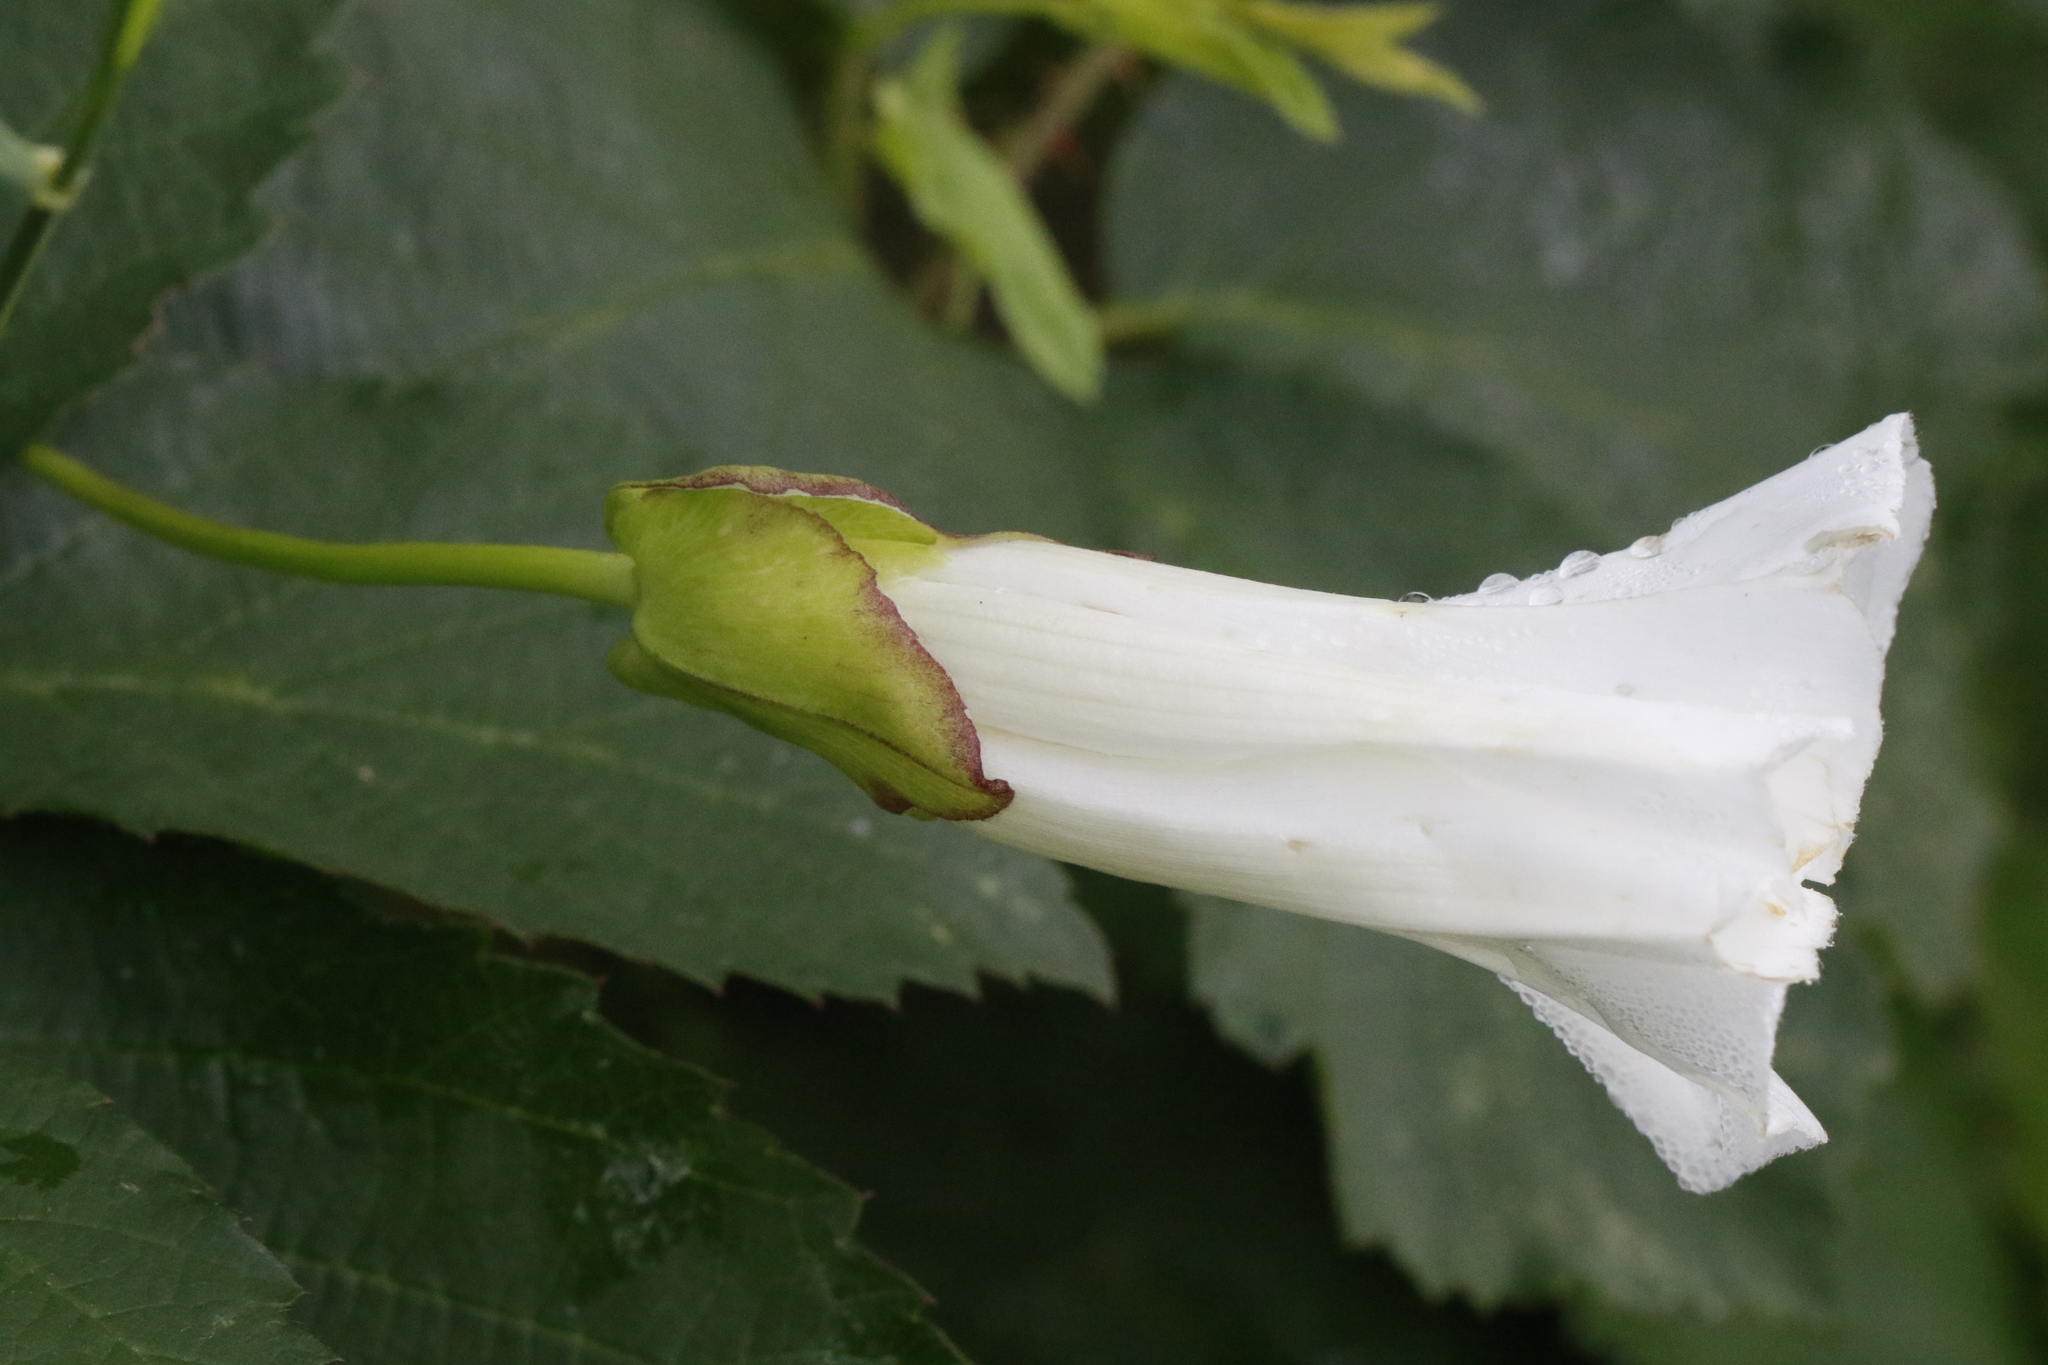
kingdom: Plantae
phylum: Tracheophyta
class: Magnoliopsida
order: Solanales
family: Convolvulaceae
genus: Calystegia
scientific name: Calystegia silvatica
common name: Large bindweed
